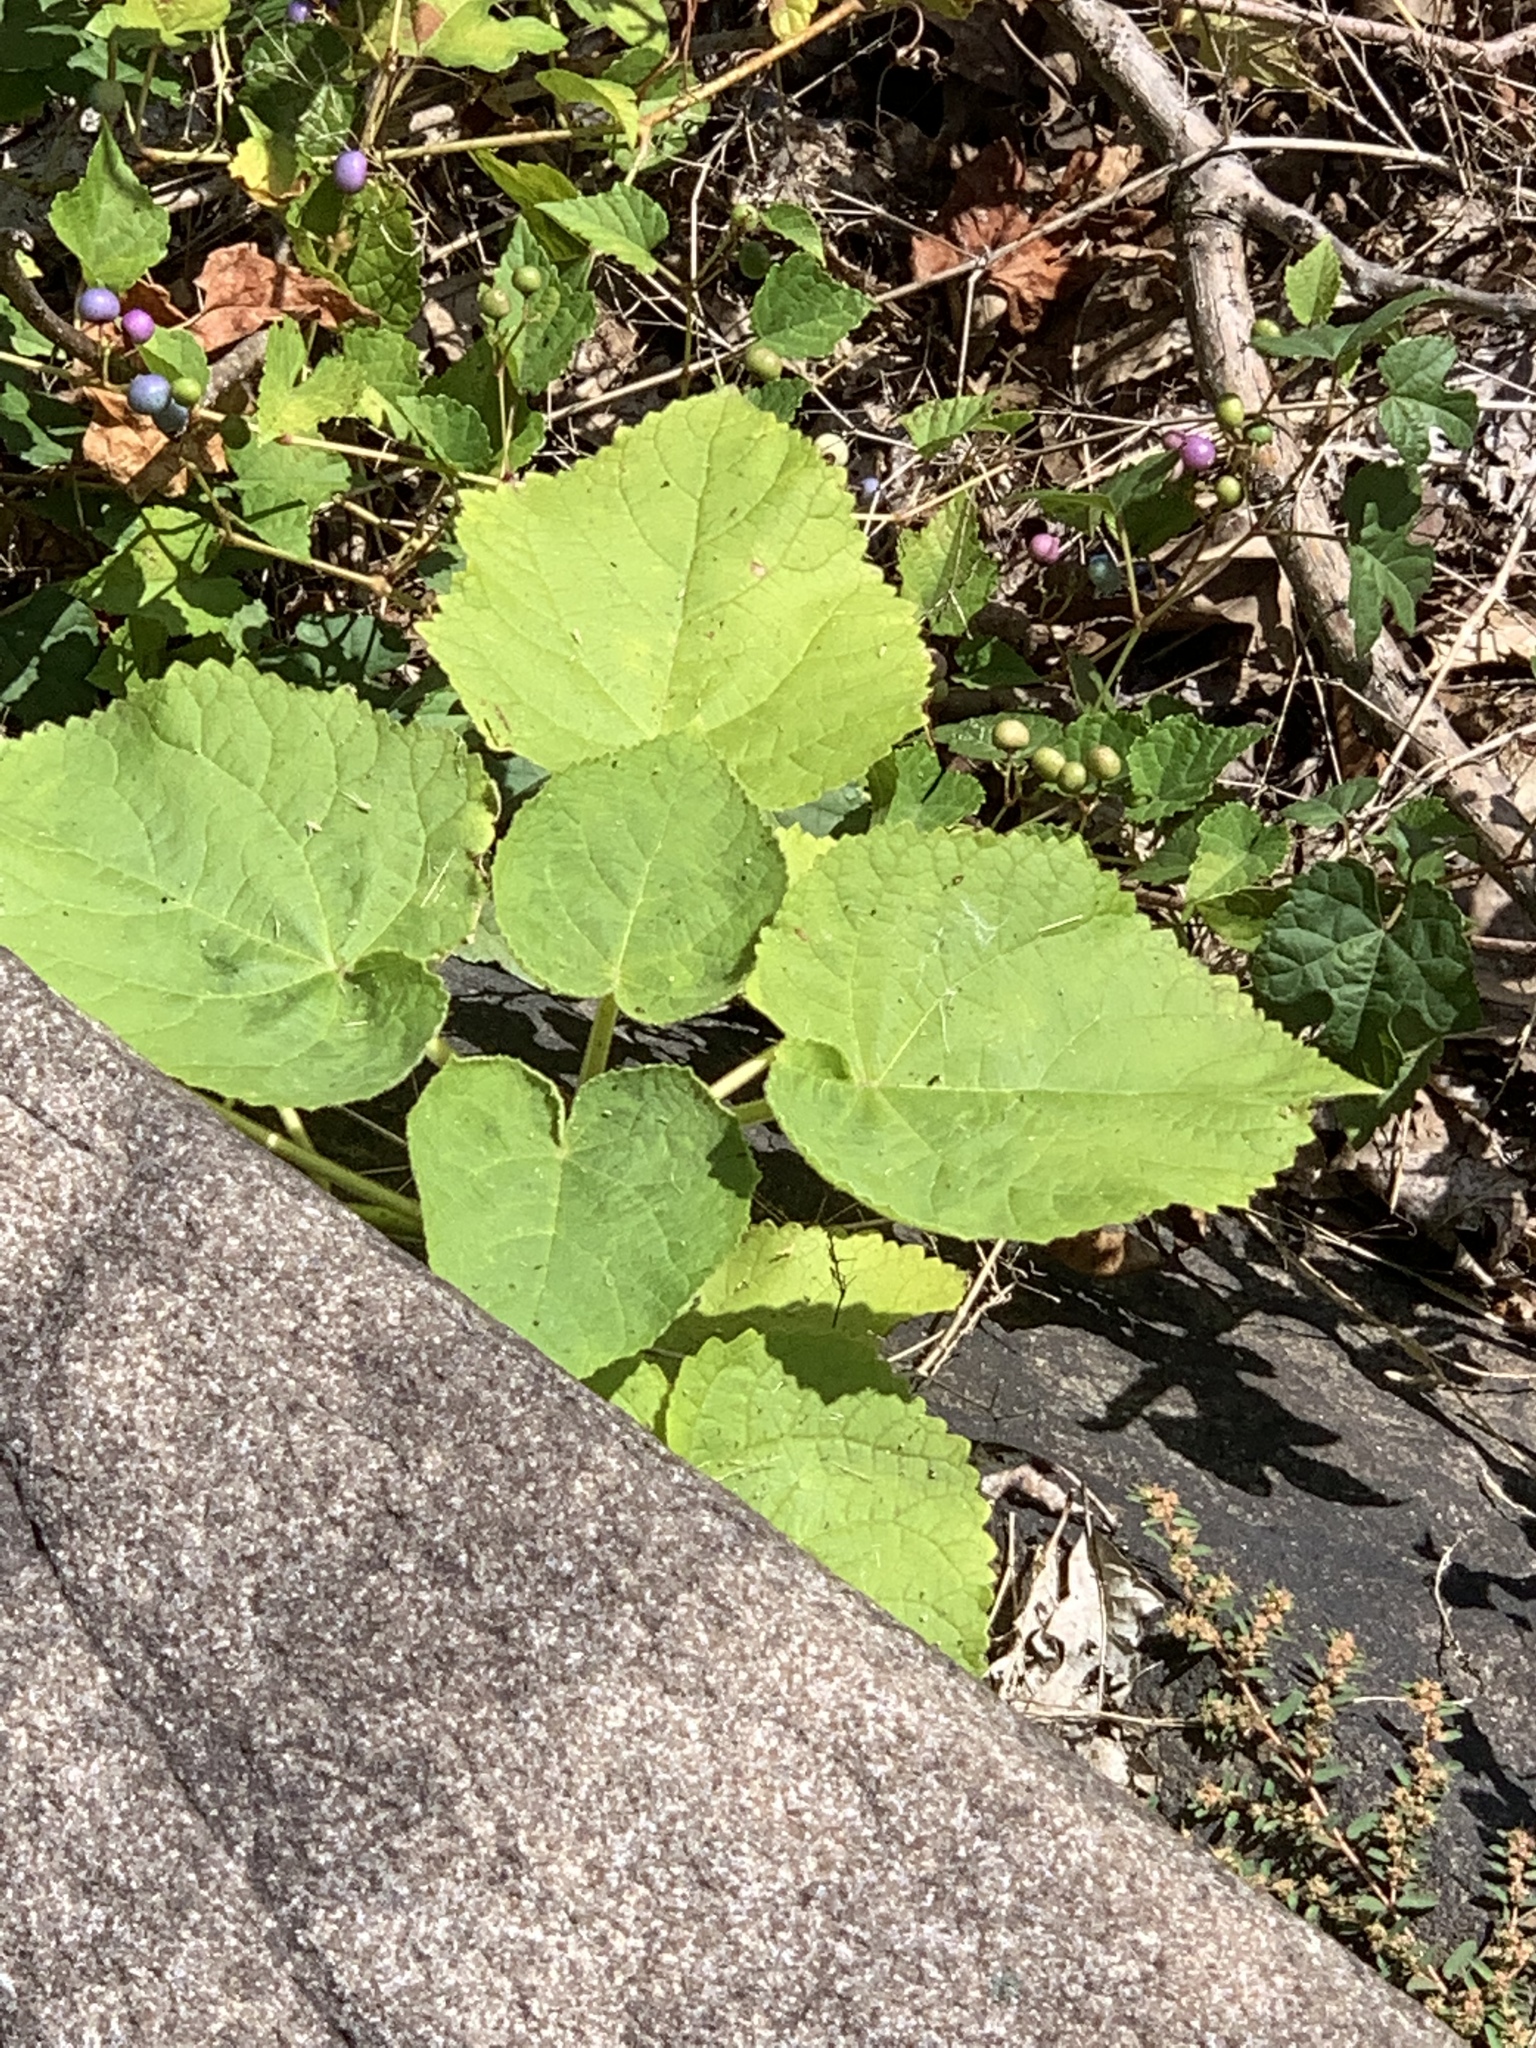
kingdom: Plantae
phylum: Tracheophyta
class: Magnoliopsida
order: Lamiales
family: Paulowniaceae
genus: Paulownia
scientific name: Paulownia tomentosa
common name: Foxglove-tree
